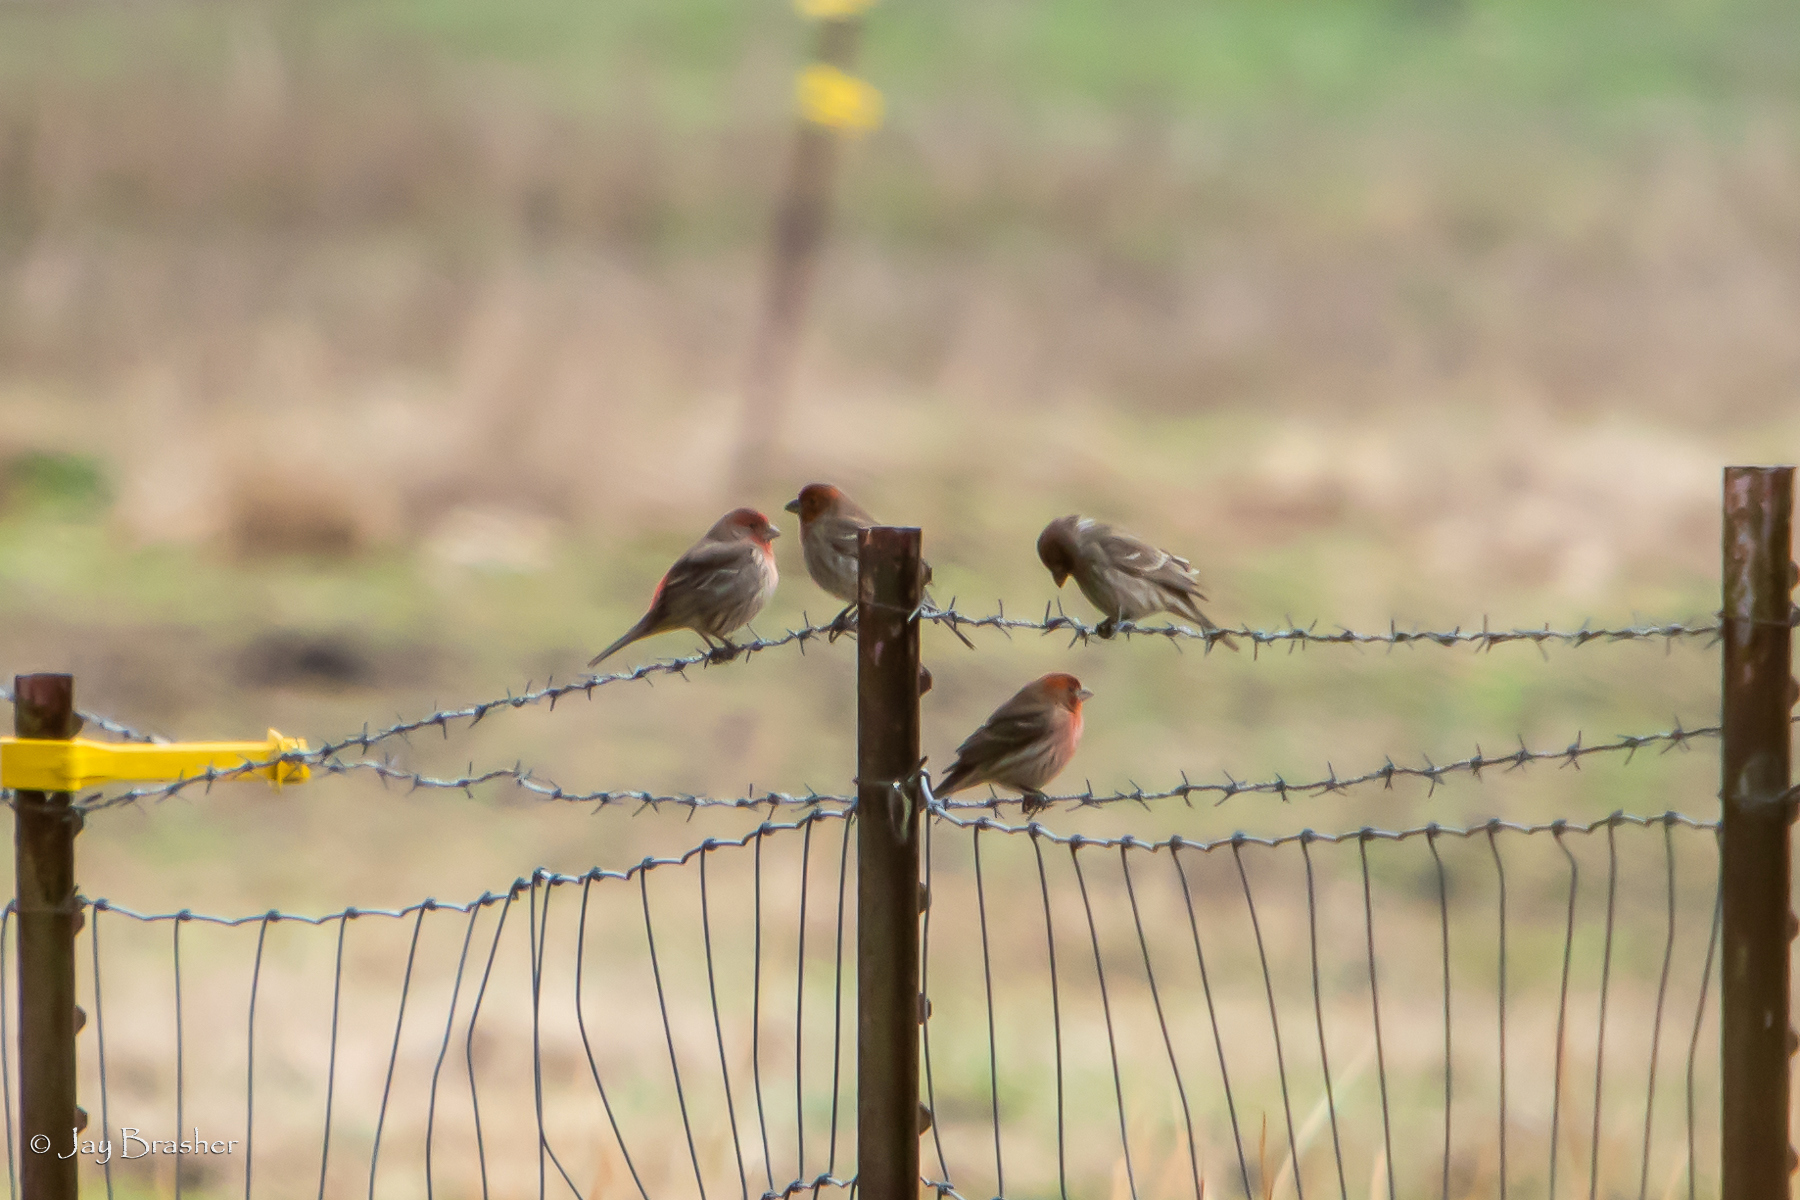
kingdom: Animalia
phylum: Chordata
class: Aves
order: Passeriformes
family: Fringillidae
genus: Haemorhous
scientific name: Haemorhous mexicanus
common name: House finch
